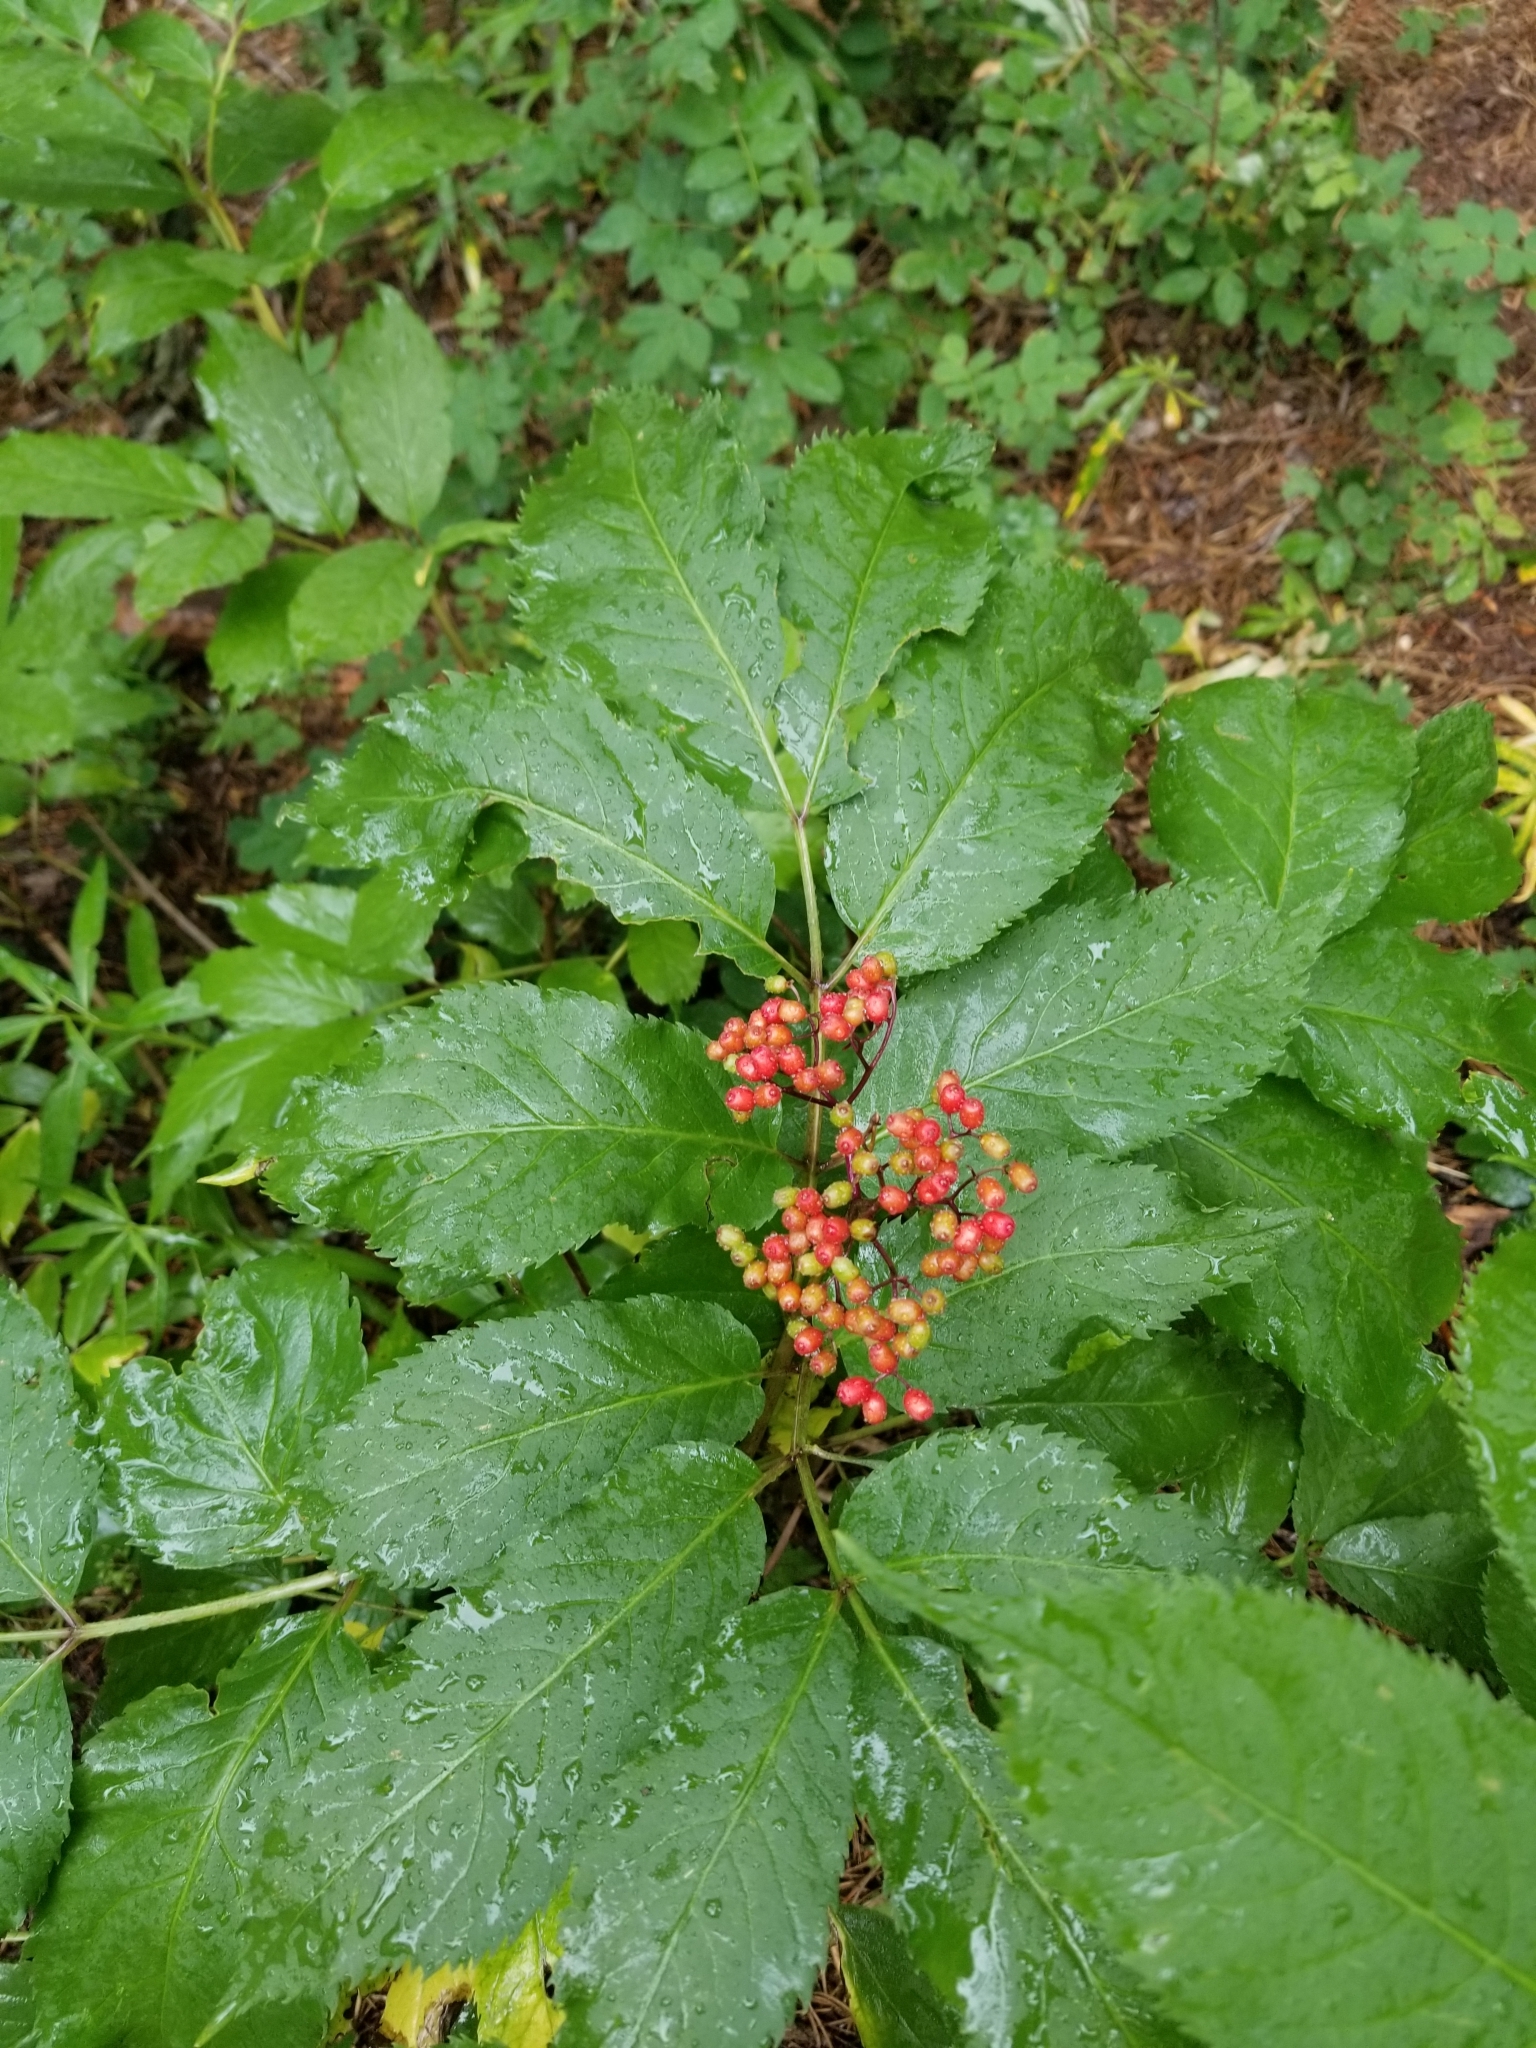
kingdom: Plantae
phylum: Tracheophyta
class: Magnoliopsida
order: Dipsacales
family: Viburnaceae
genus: Sambucus
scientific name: Sambucus racemosa
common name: Red-berried elder
